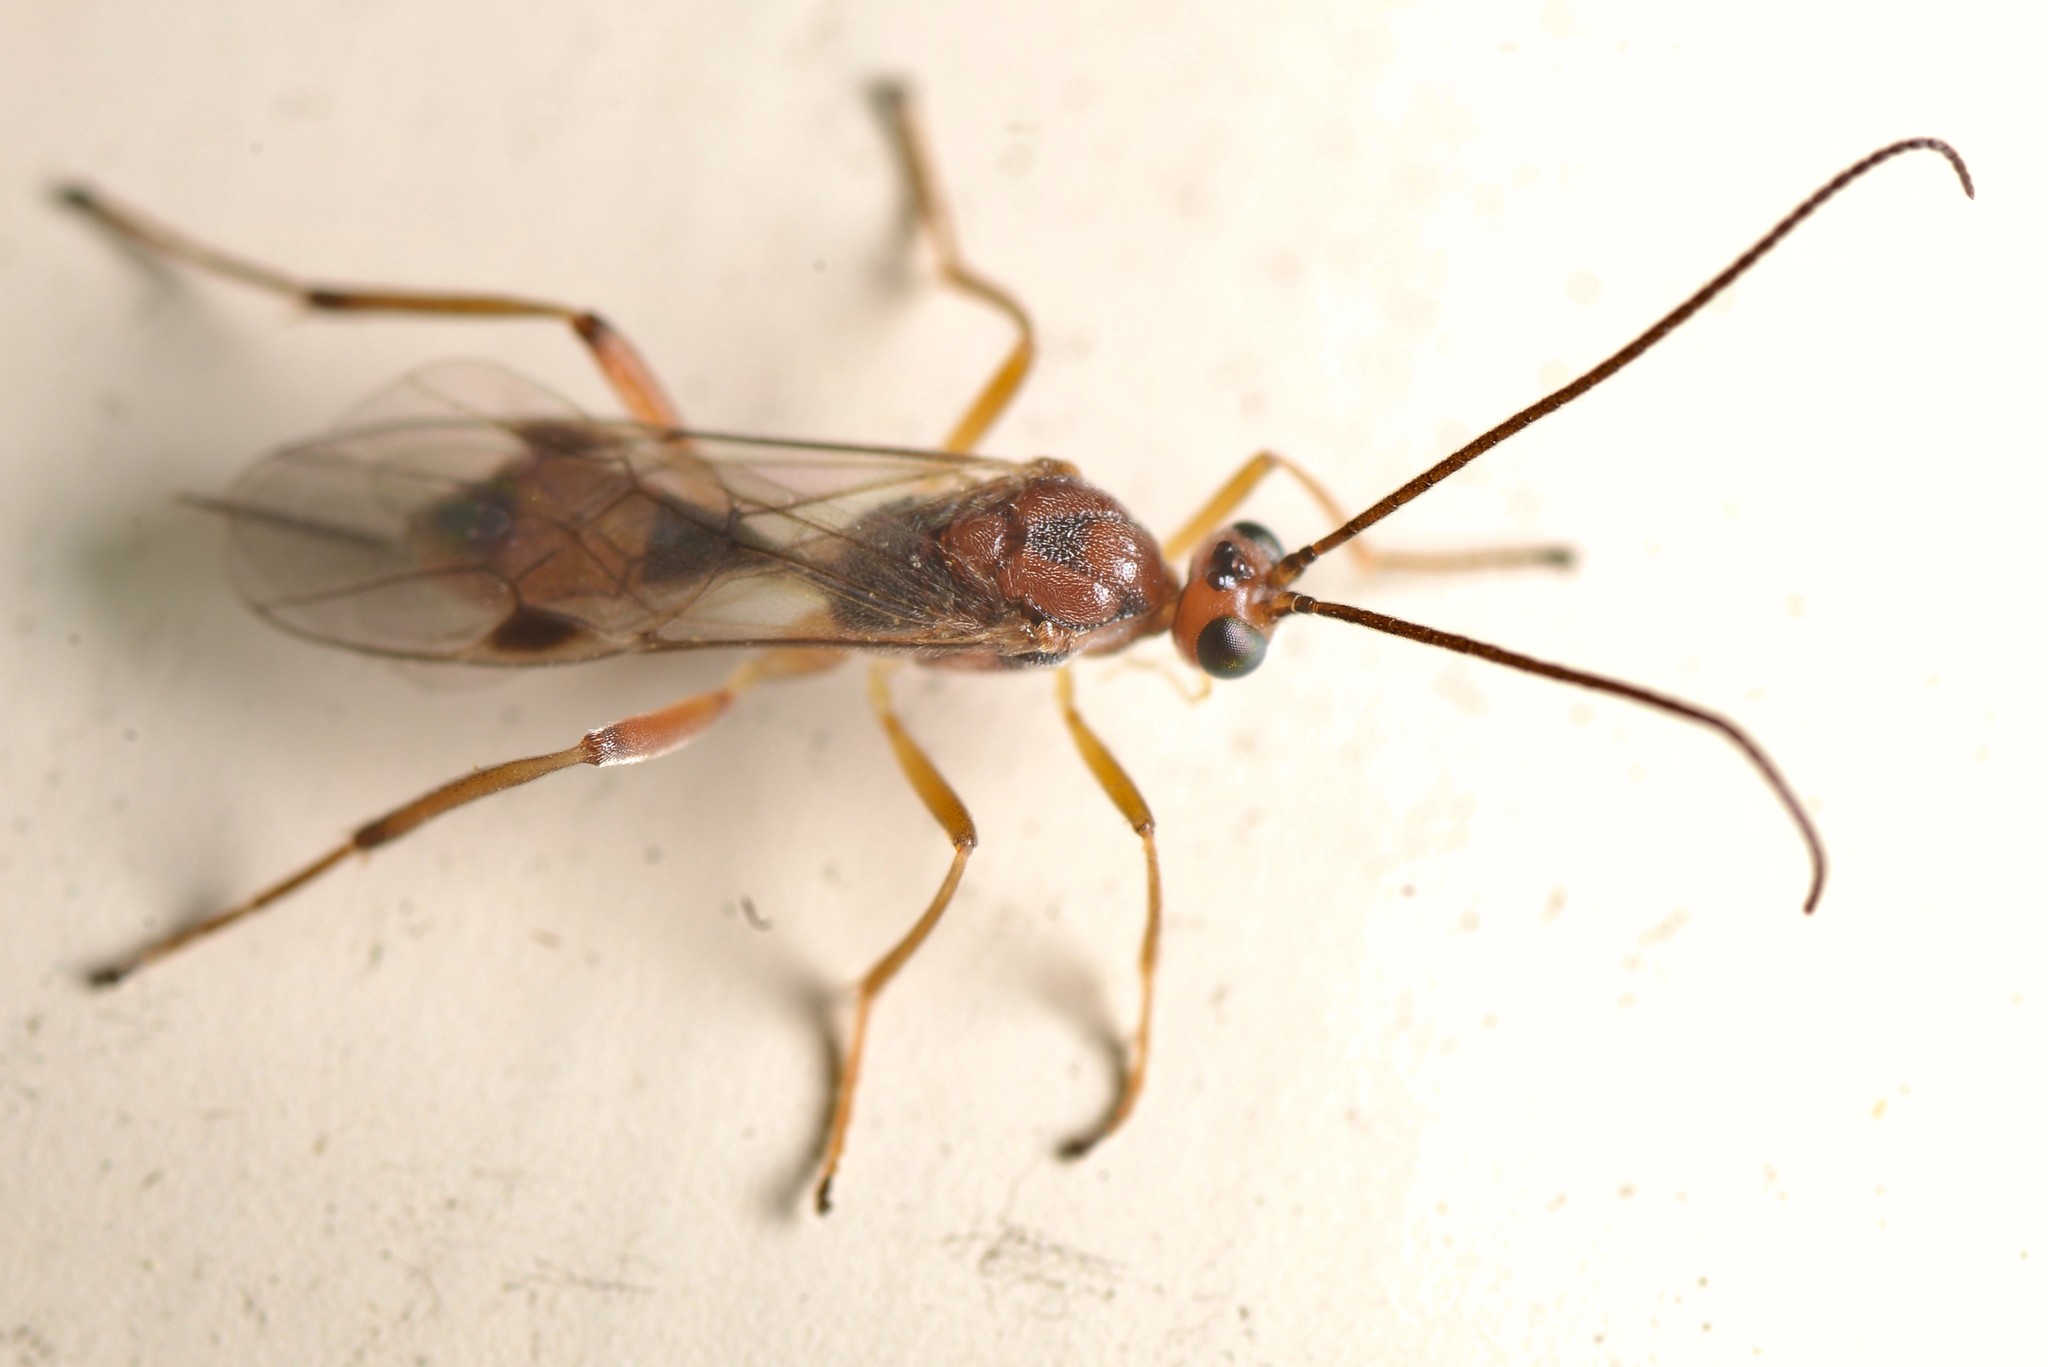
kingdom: Animalia
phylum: Arthropoda
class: Insecta
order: Hymenoptera
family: Braconidae
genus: Meteorus
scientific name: Meteorus pulchricornis
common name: Braconid wasp
